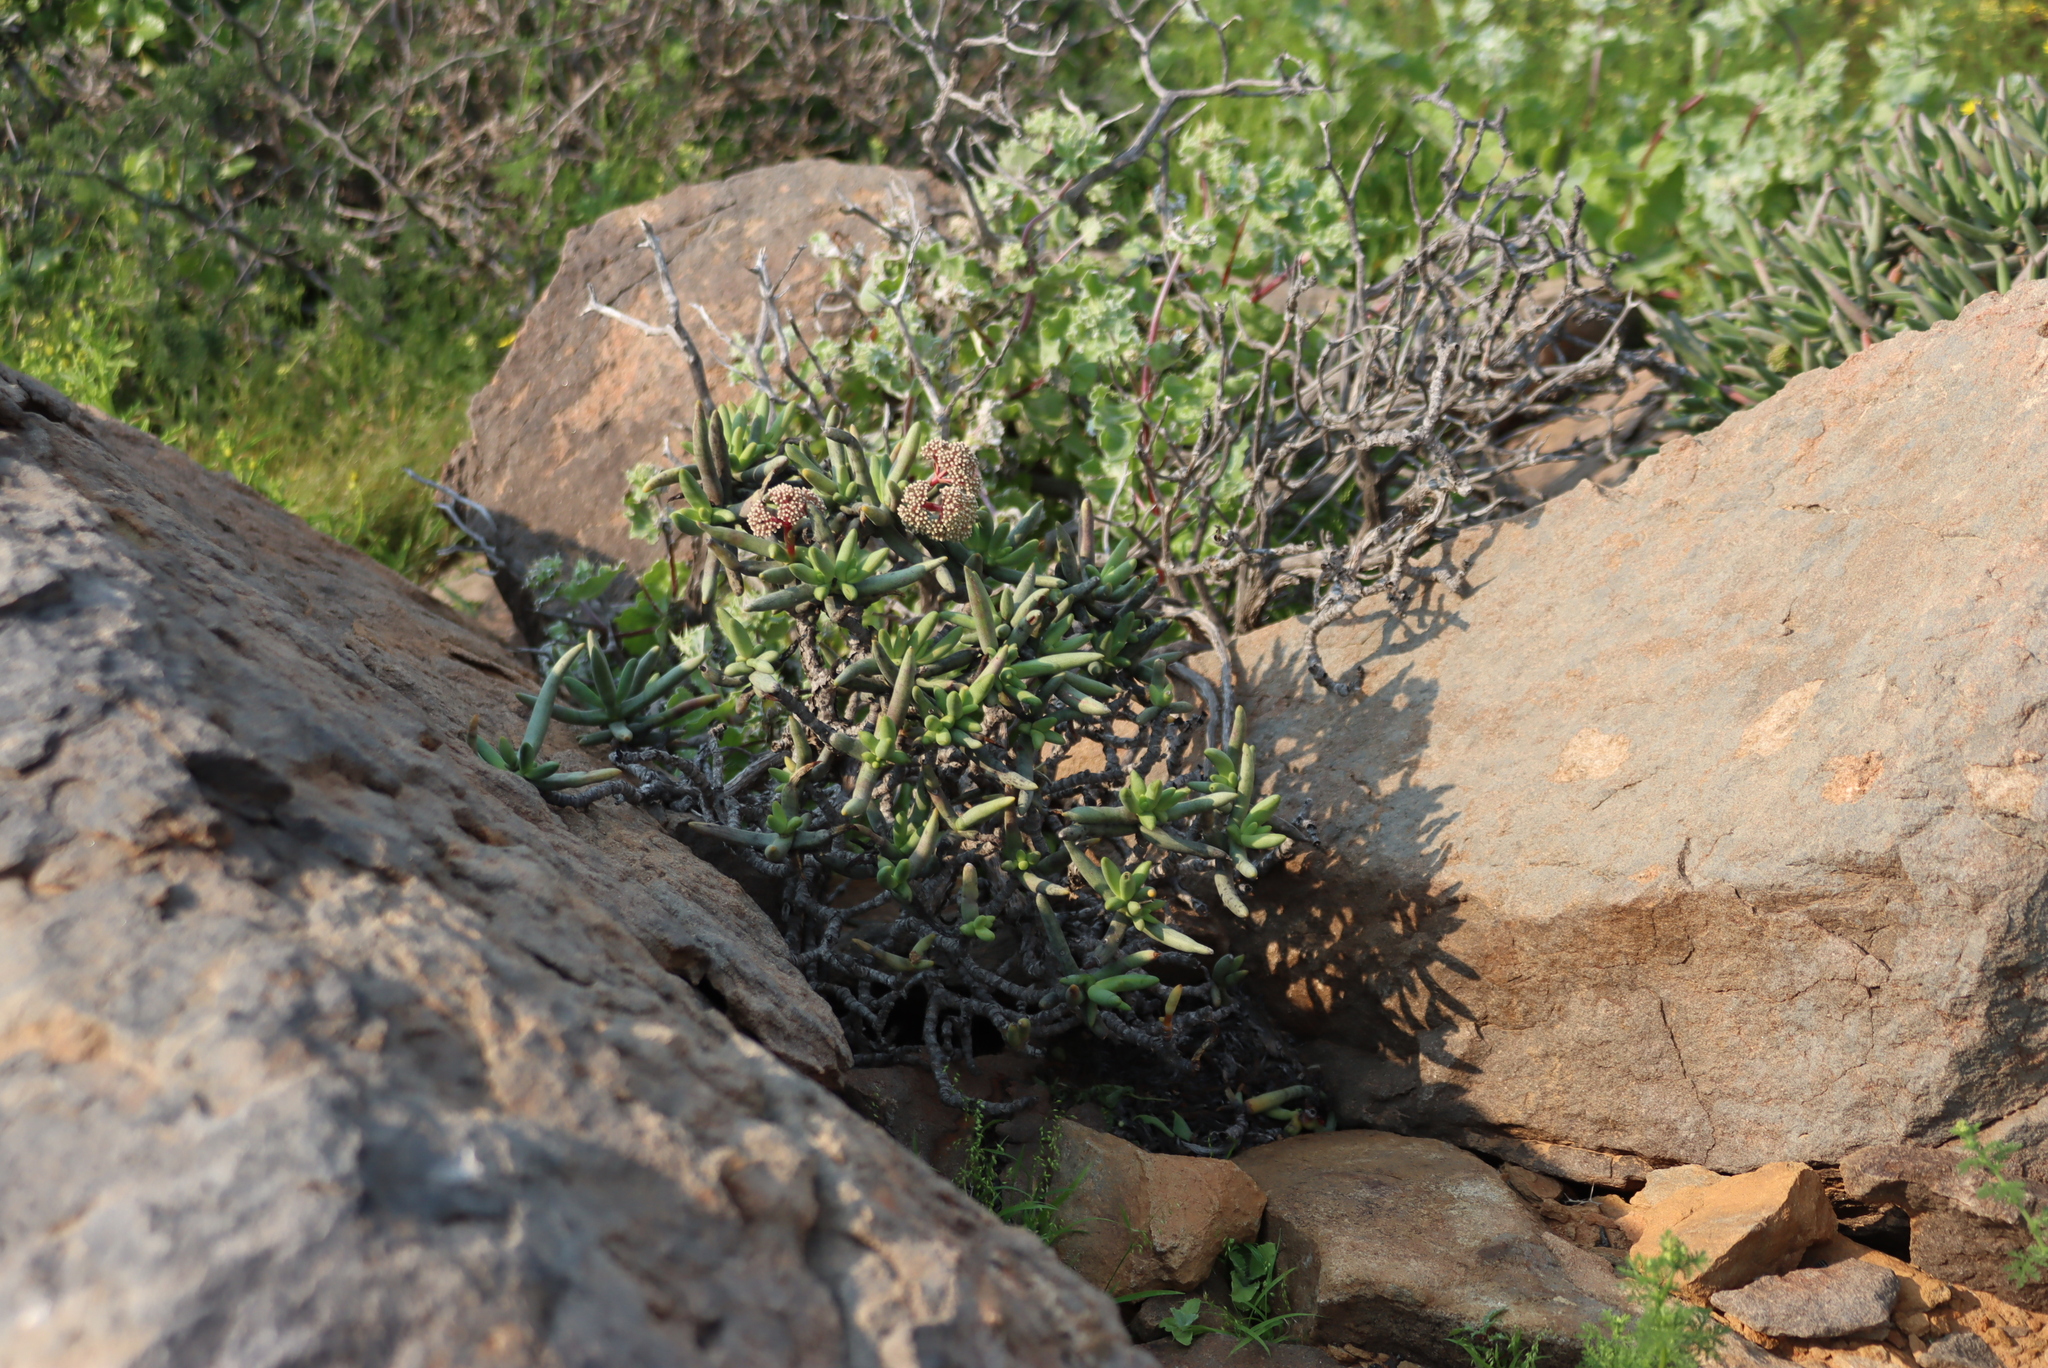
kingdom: Plantae
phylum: Tracheophyta
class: Magnoliopsida
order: Saxifragales
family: Crassulaceae
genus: Crassula
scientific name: Crassula macowaniana
